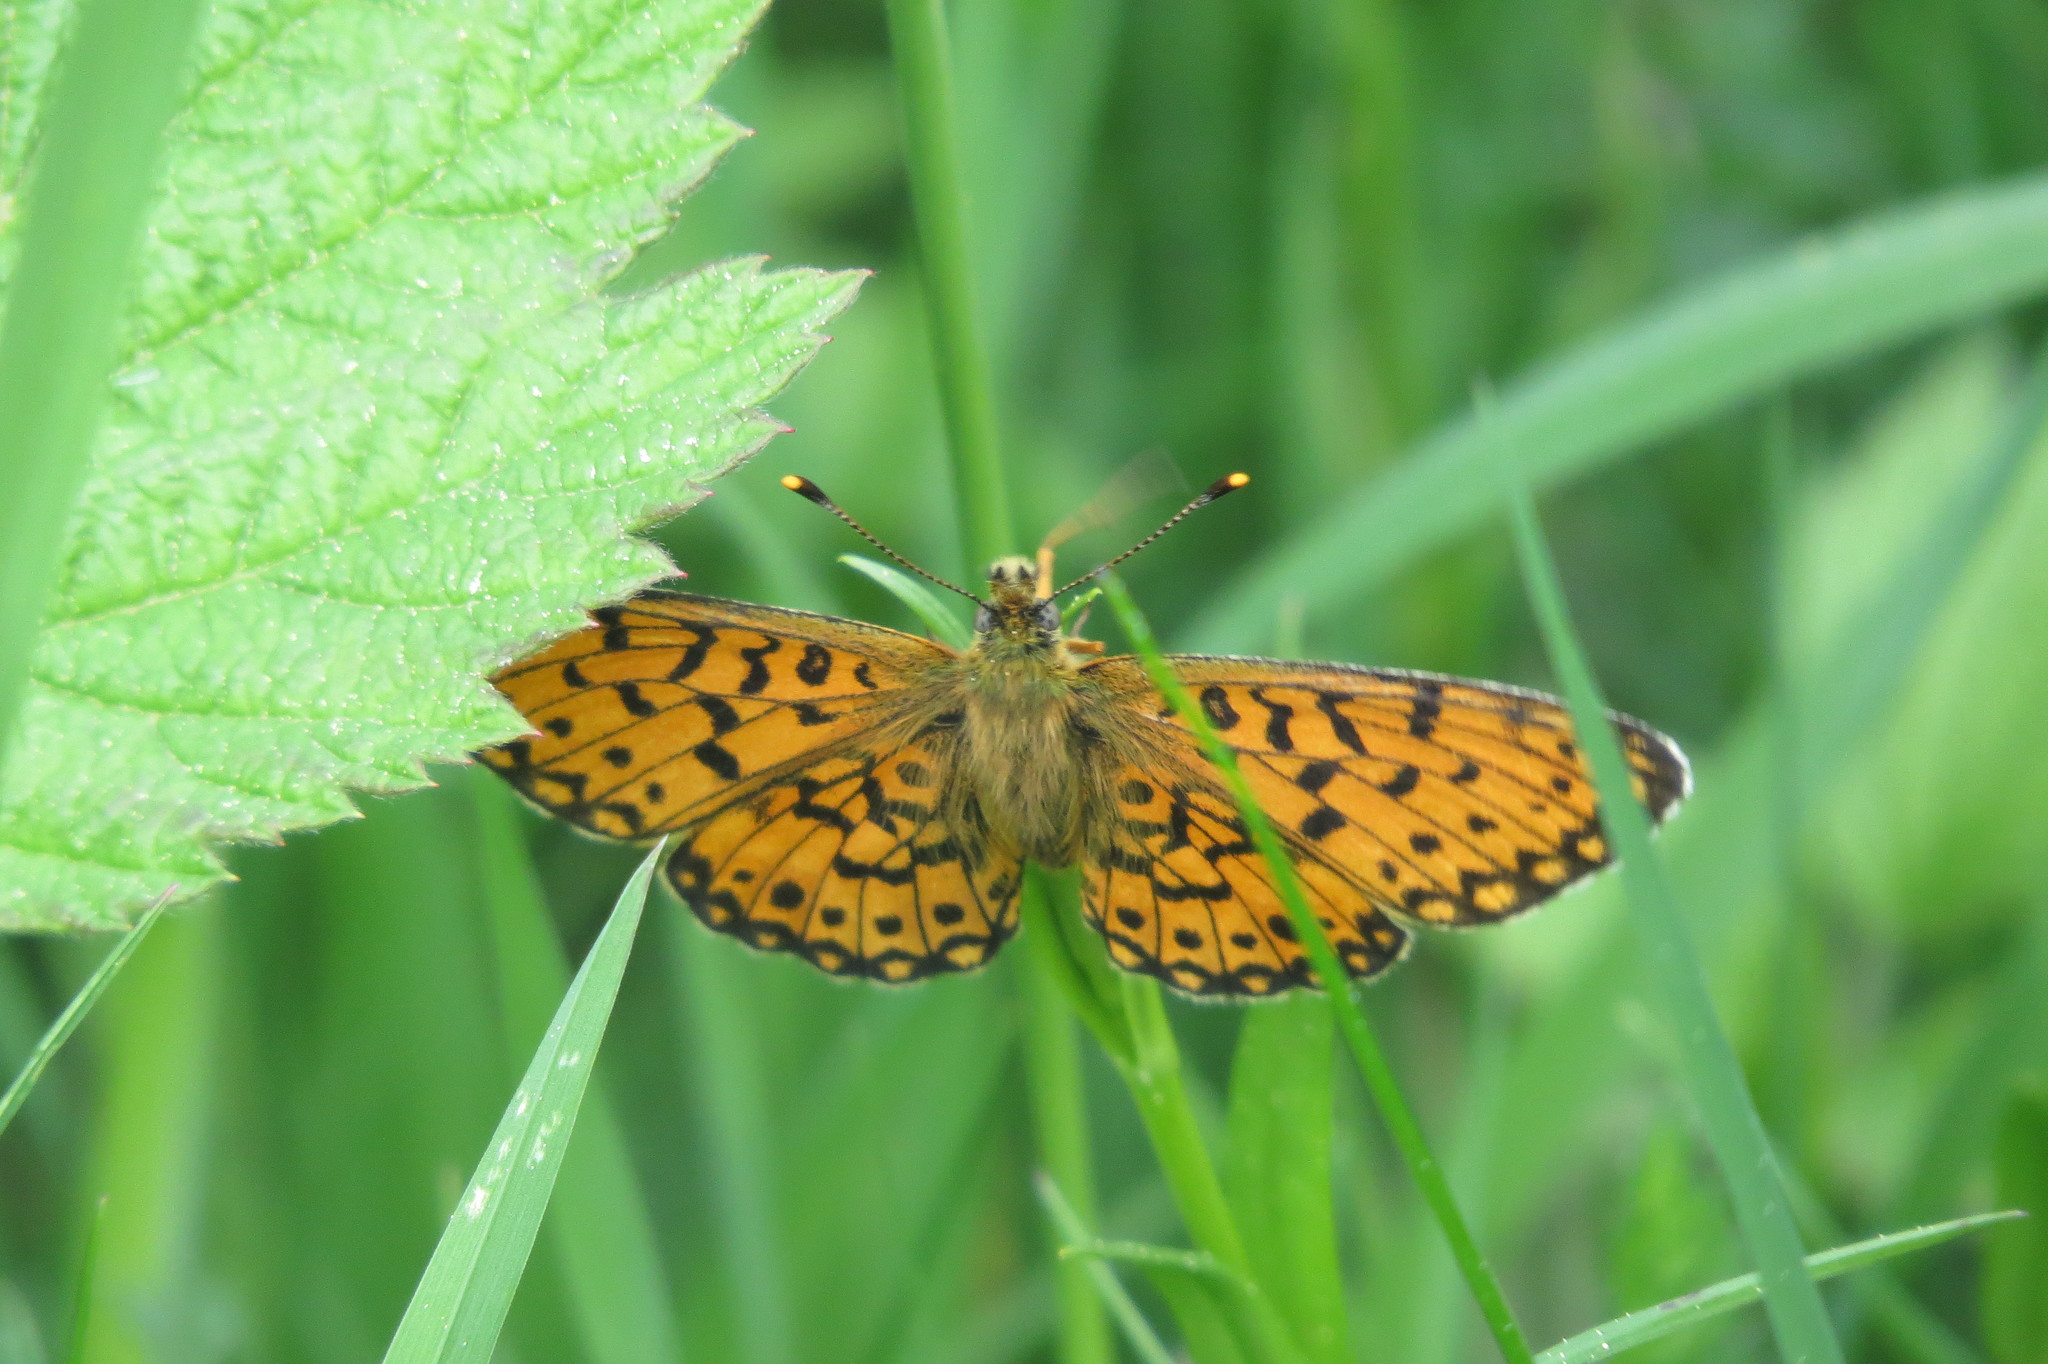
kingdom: Animalia
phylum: Arthropoda
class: Insecta
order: Lepidoptera
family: Nymphalidae
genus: Boloria
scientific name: Boloria selene
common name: Small pearl-bordered fritillary
